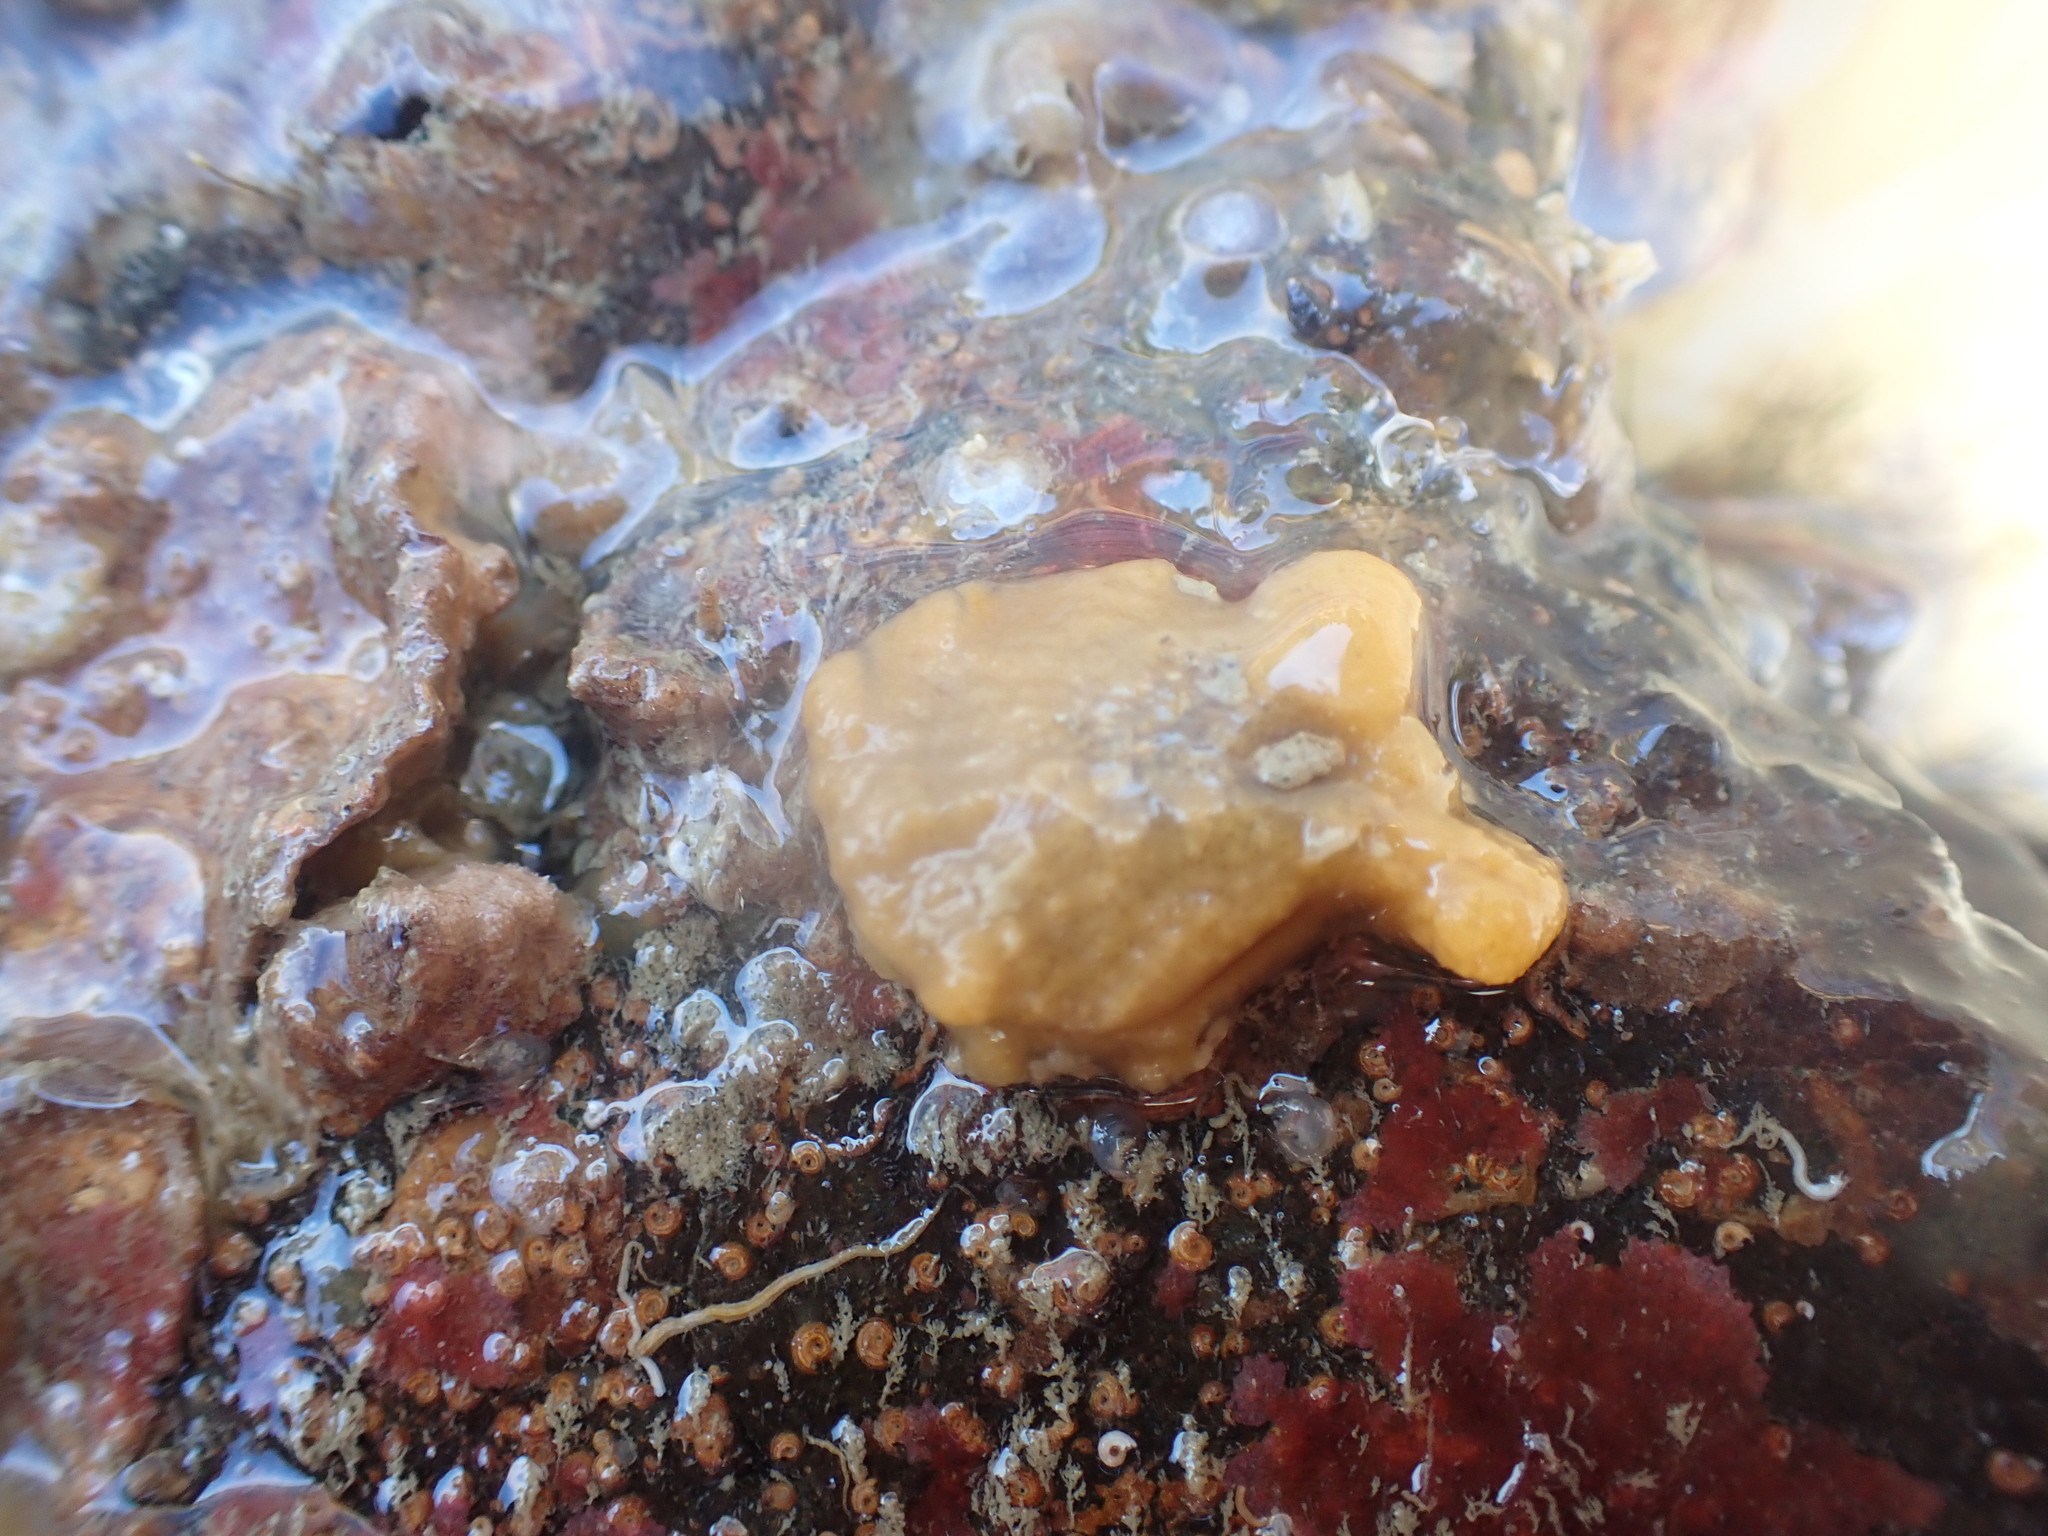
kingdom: Animalia
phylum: Mollusca
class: Bivalvia
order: Pectinida
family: Pectinidae
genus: Talochlamys
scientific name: Talochlamys zelandiae
